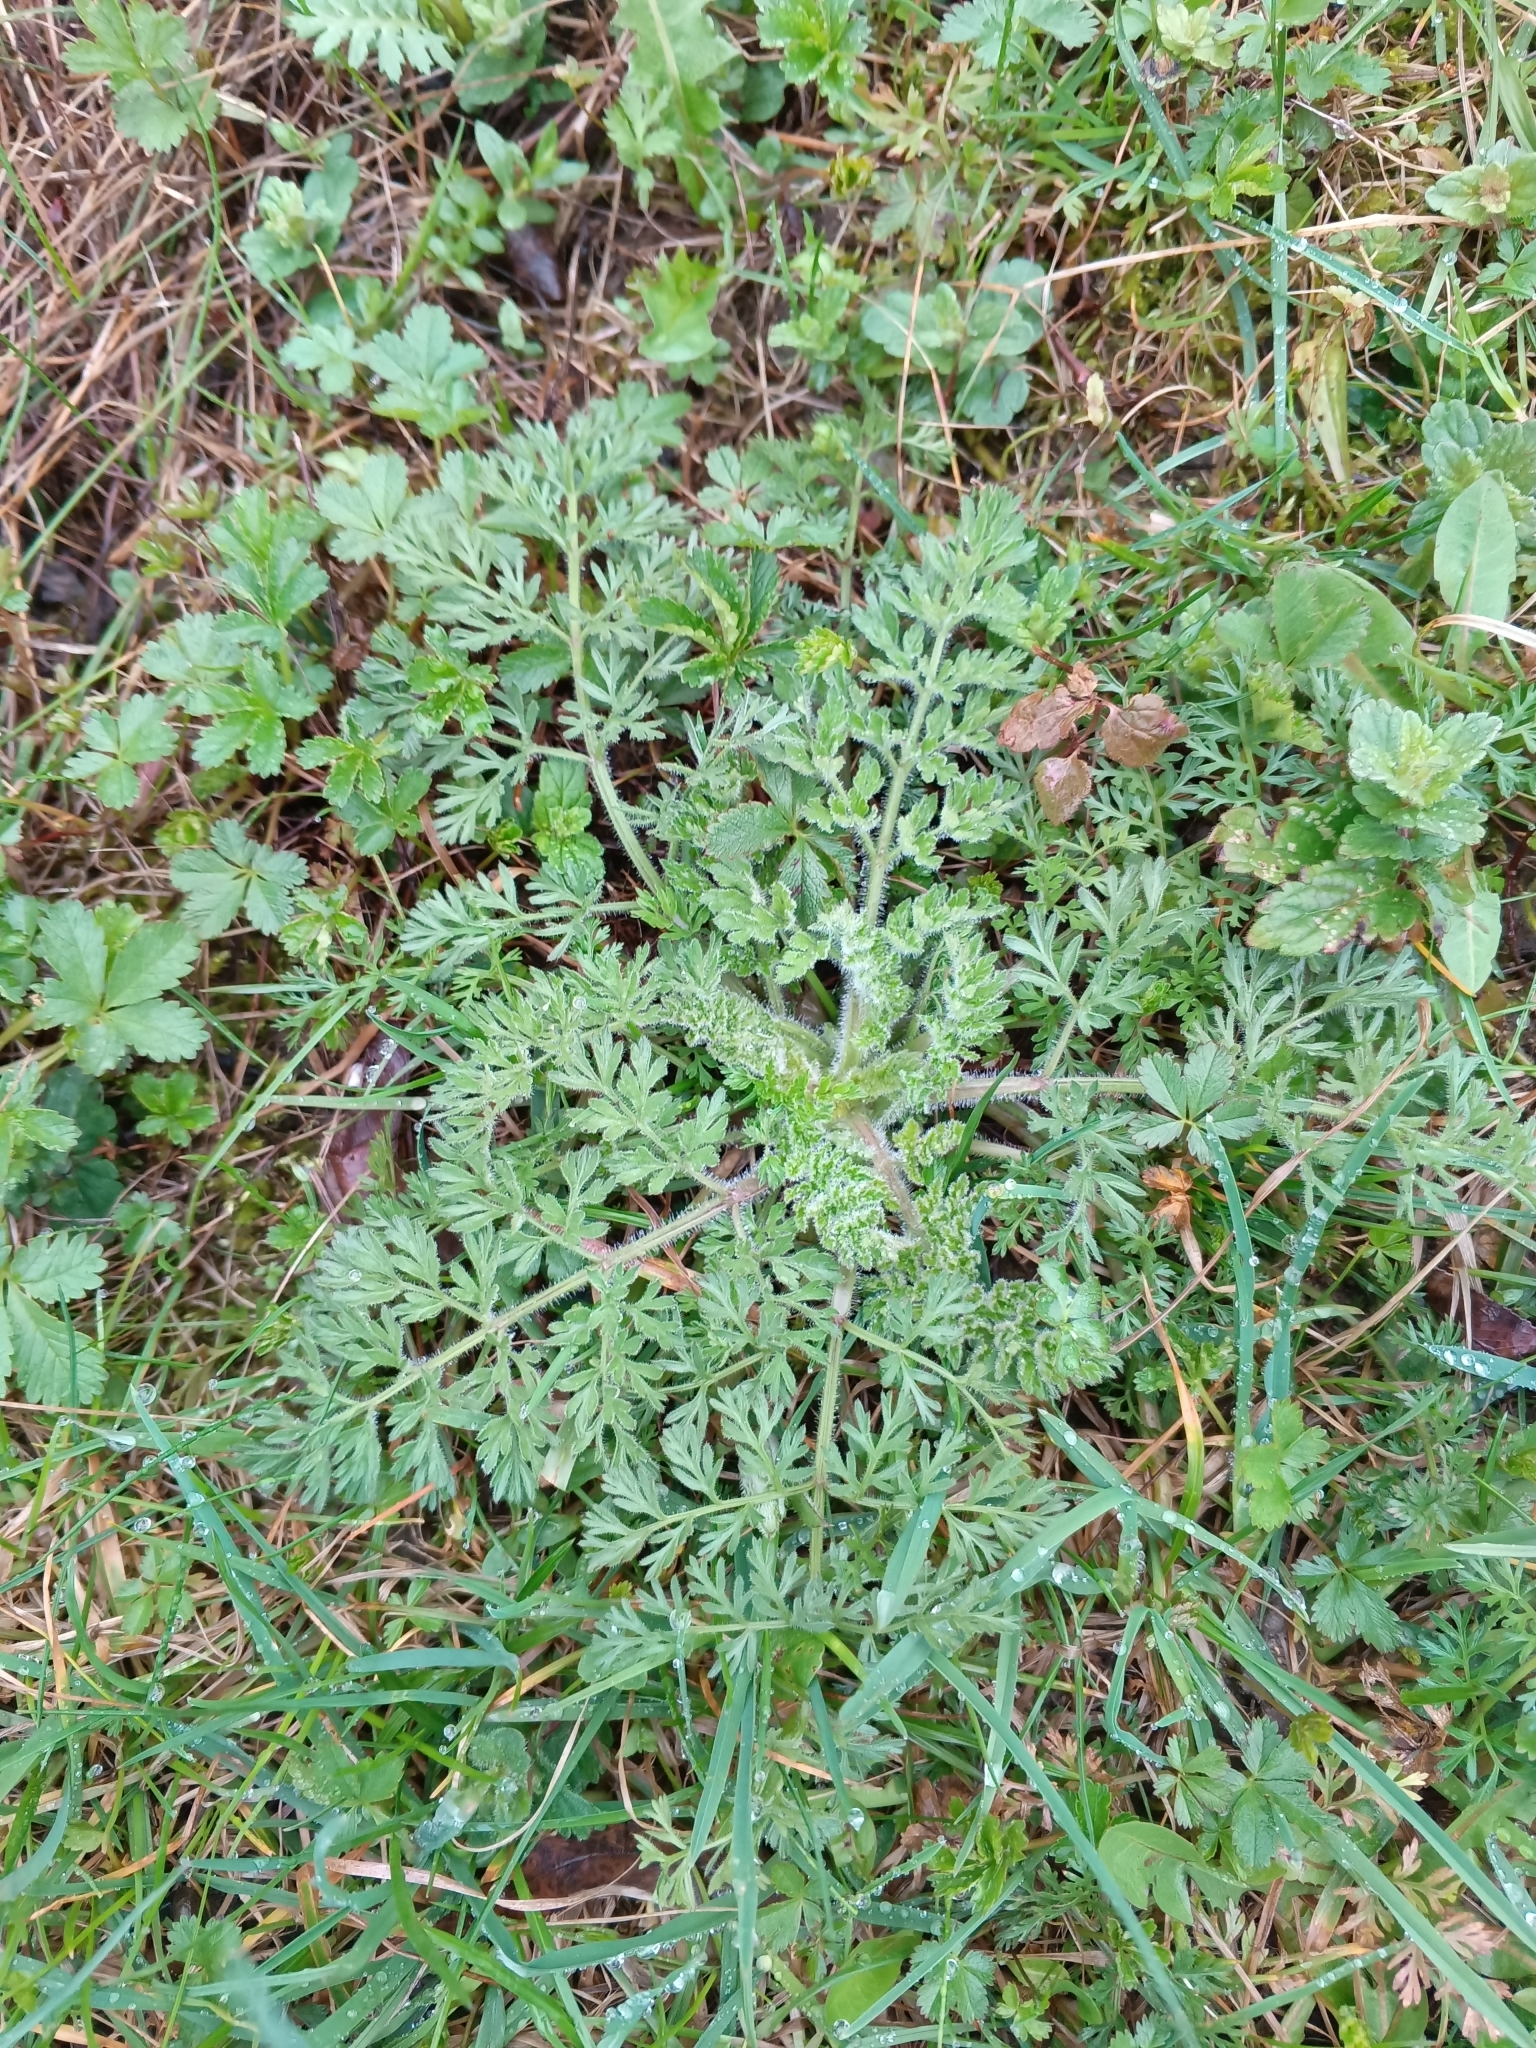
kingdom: Plantae
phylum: Tracheophyta
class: Magnoliopsida
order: Apiales
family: Apiaceae
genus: Daucus
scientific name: Daucus carota
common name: Wild carrot
